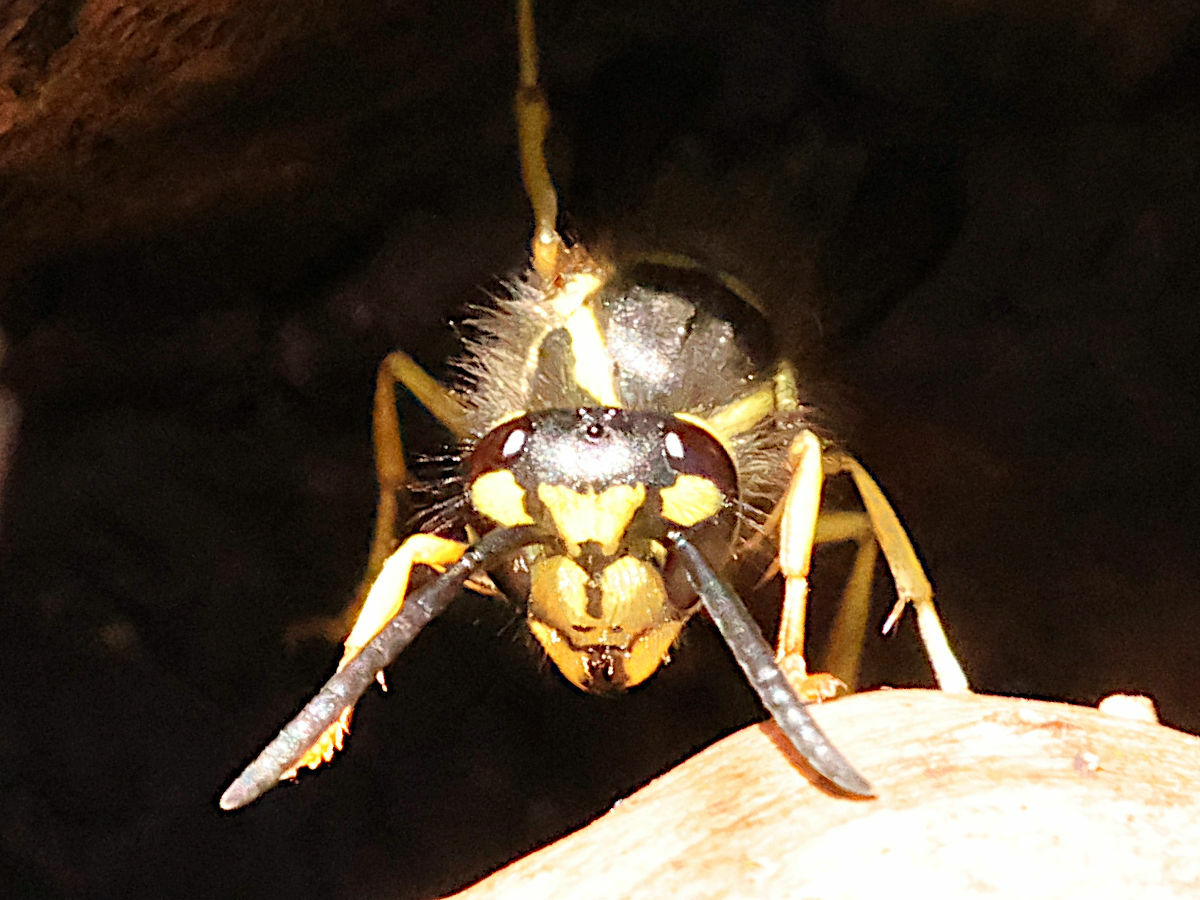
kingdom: Animalia
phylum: Arthropoda
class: Insecta
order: Hymenoptera
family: Vespidae
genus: Vespula
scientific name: Vespula maculifrons
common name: Eastern yellowjacket
